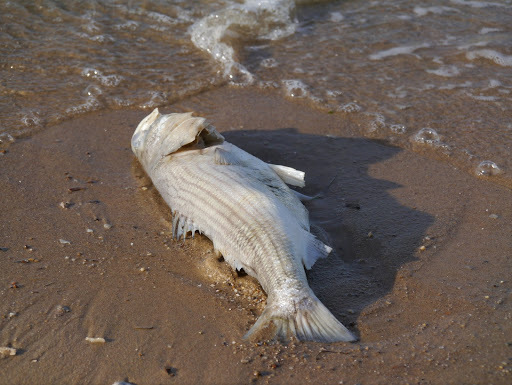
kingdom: Animalia
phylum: Chordata
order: Perciformes
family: Moronidae
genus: Morone
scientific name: Morone saxatilis
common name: Striped bass
